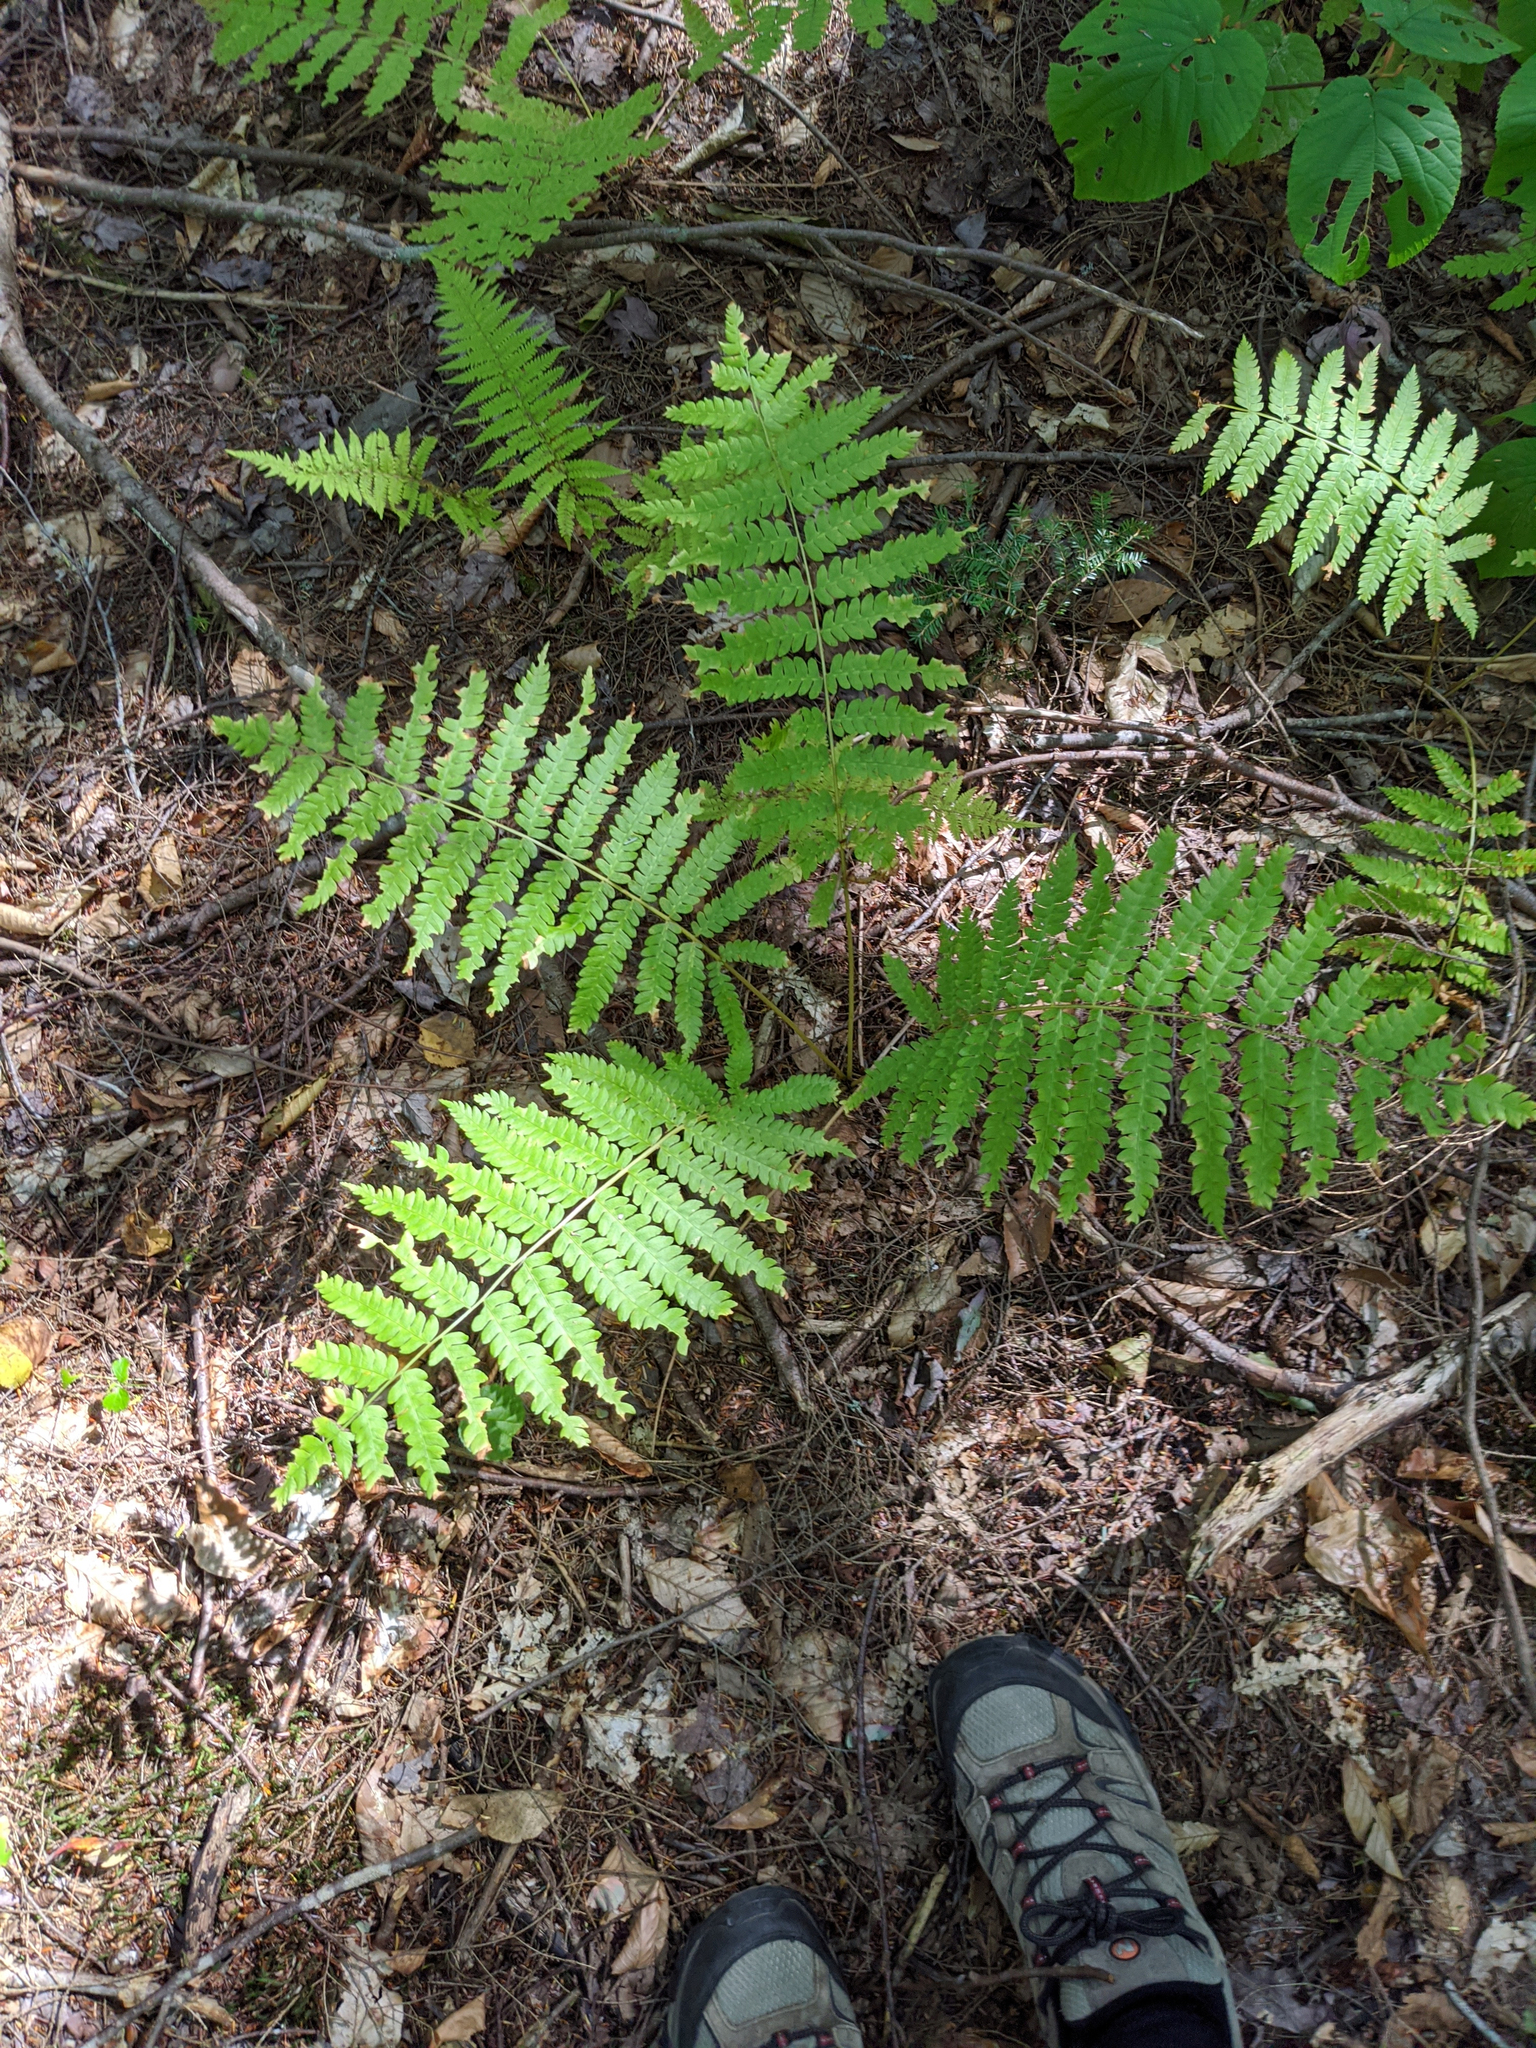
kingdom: Plantae
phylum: Tracheophyta
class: Polypodiopsida
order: Osmundales
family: Osmundaceae
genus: Osmundastrum
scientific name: Osmundastrum cinnamomeum
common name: Cinnamon fern
